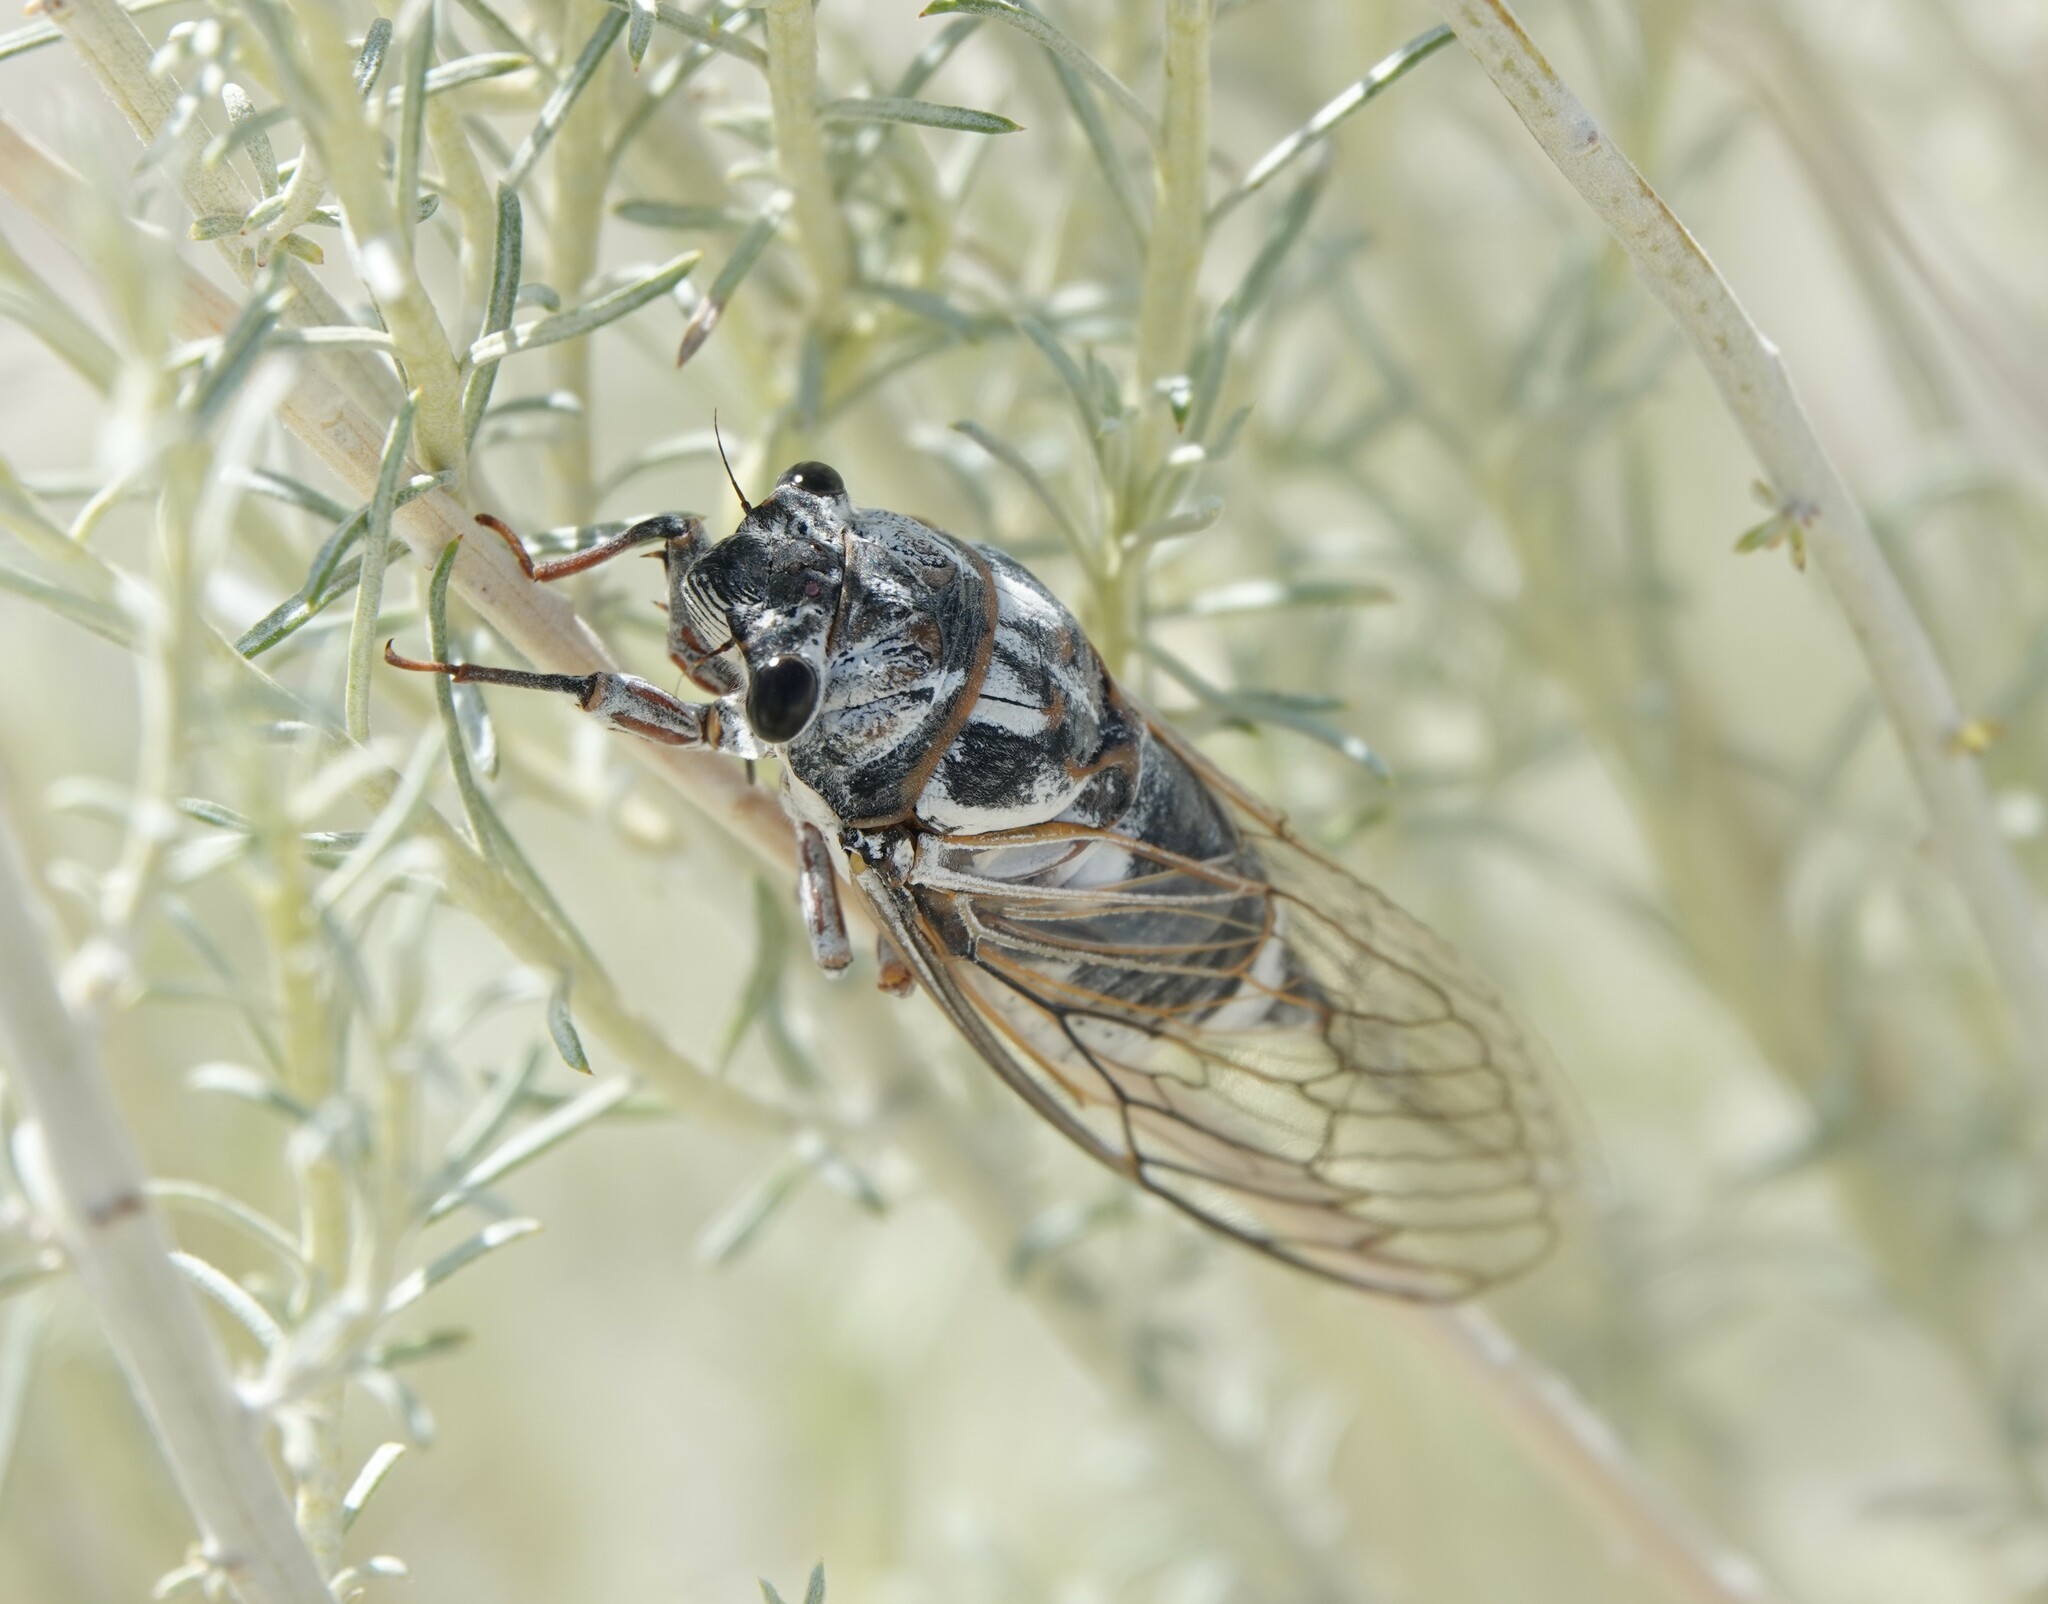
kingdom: Animalia
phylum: Arthropoda
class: Insecta
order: Hemiptera
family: Cicadidae
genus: Hadoa
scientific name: Hadoa townsendii
